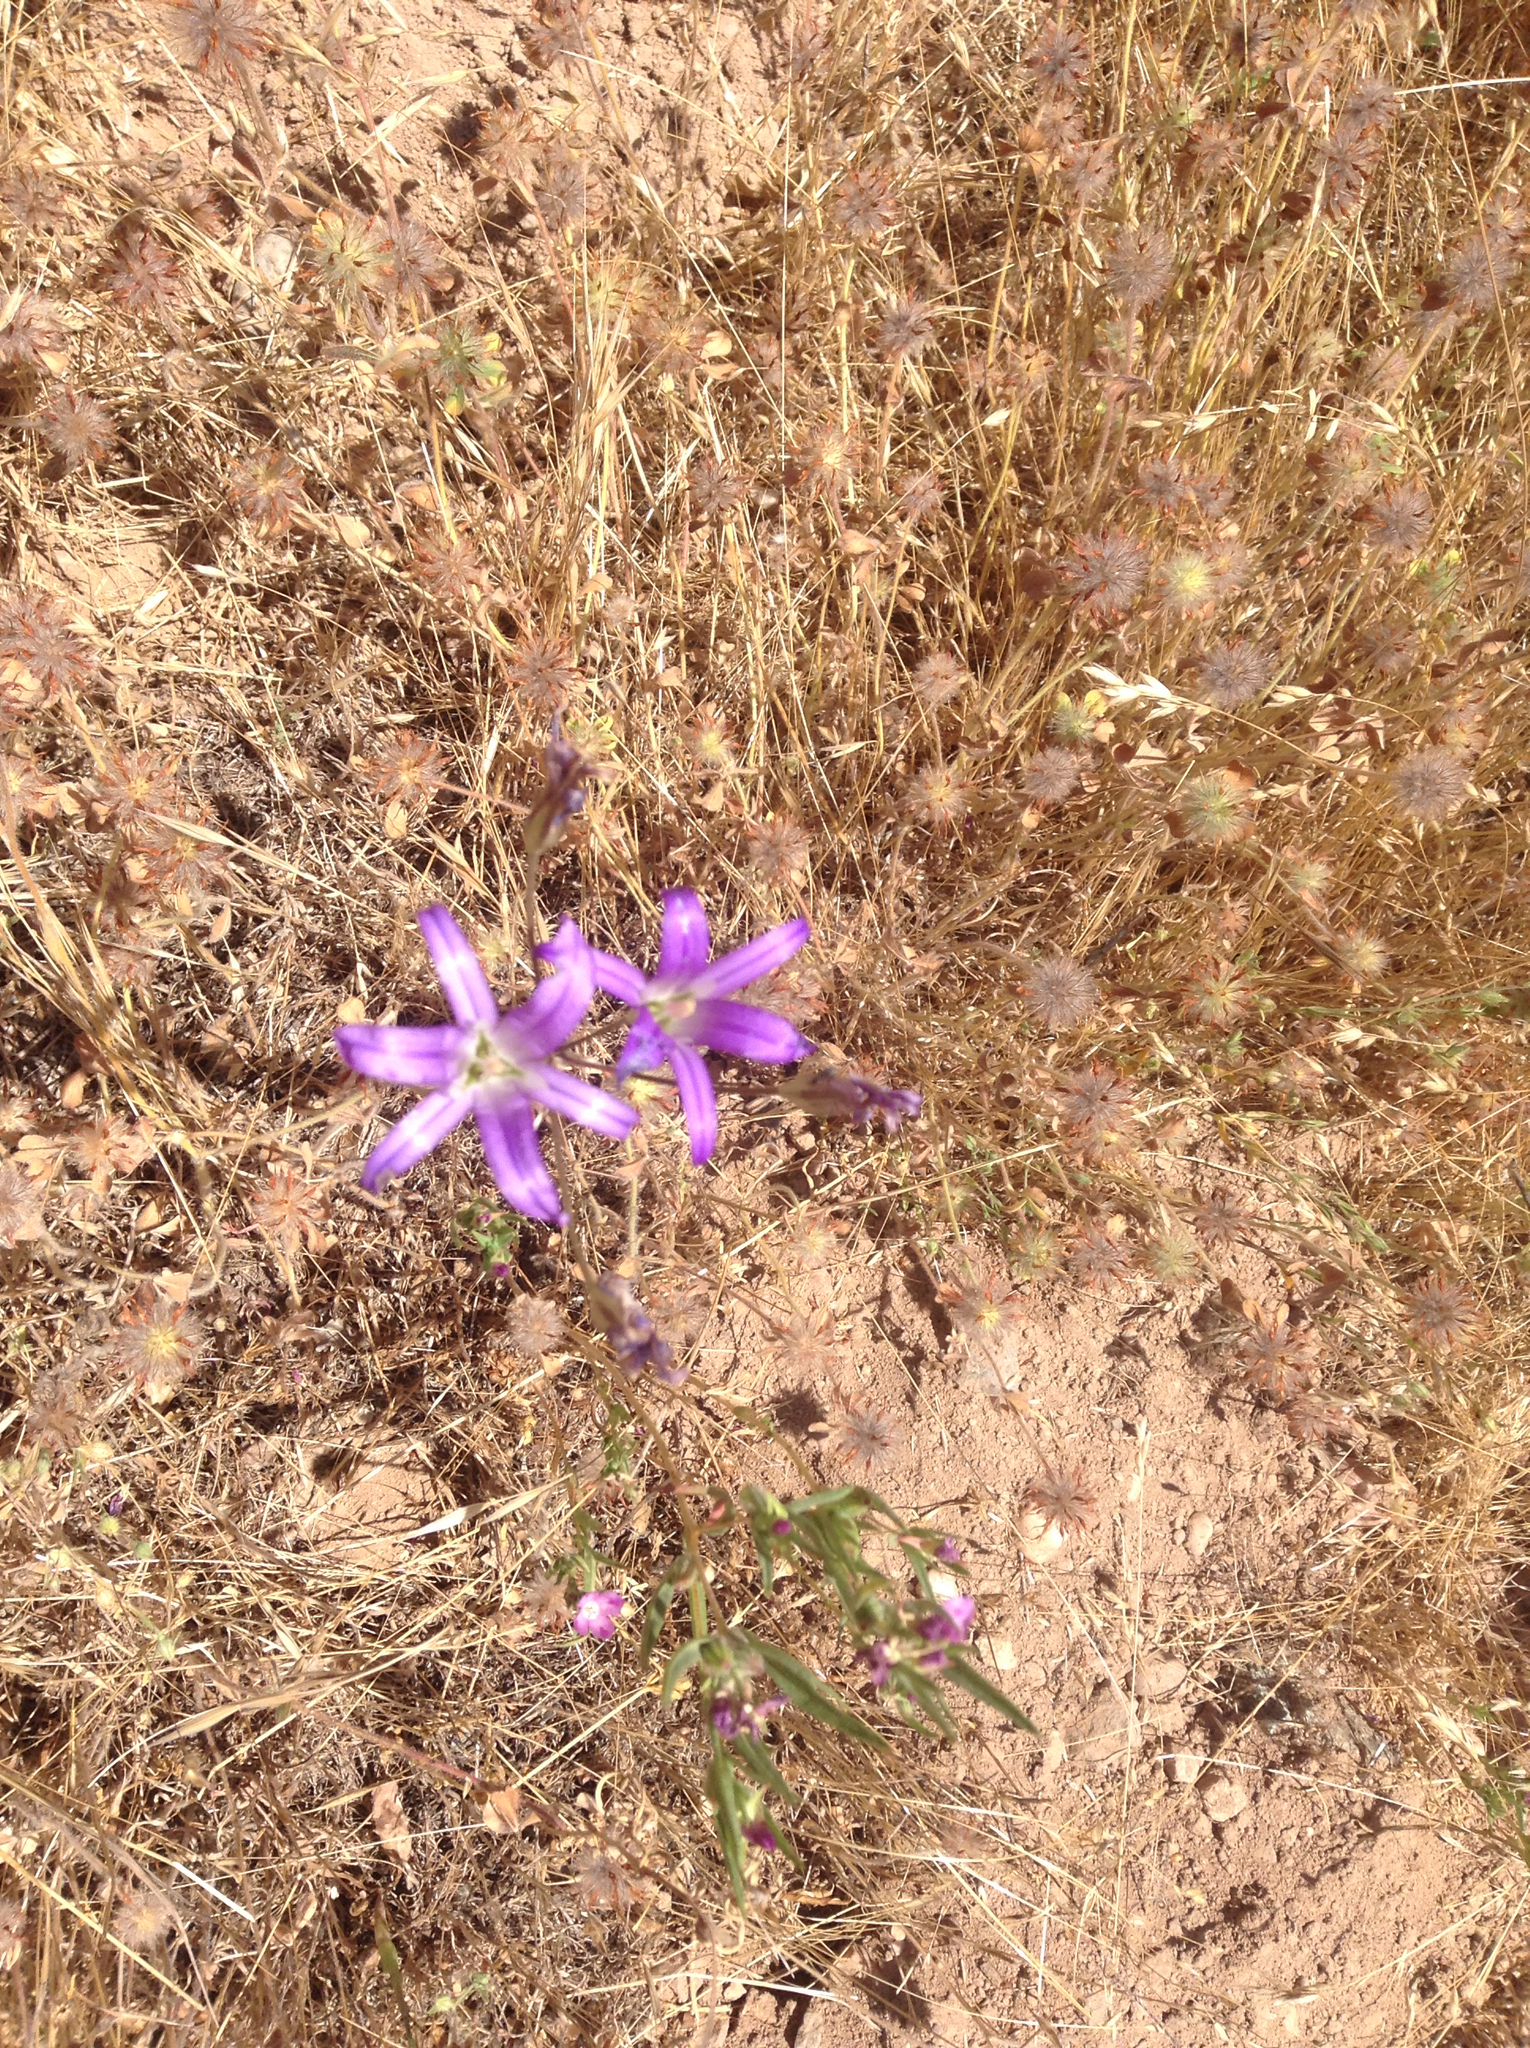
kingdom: Plantae
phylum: Tracheophyta
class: Liliopsida
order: Asparagales
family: Asparagaceae
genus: Brodiaea
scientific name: Brodiaea elegans
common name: Elegant cluster-lily
